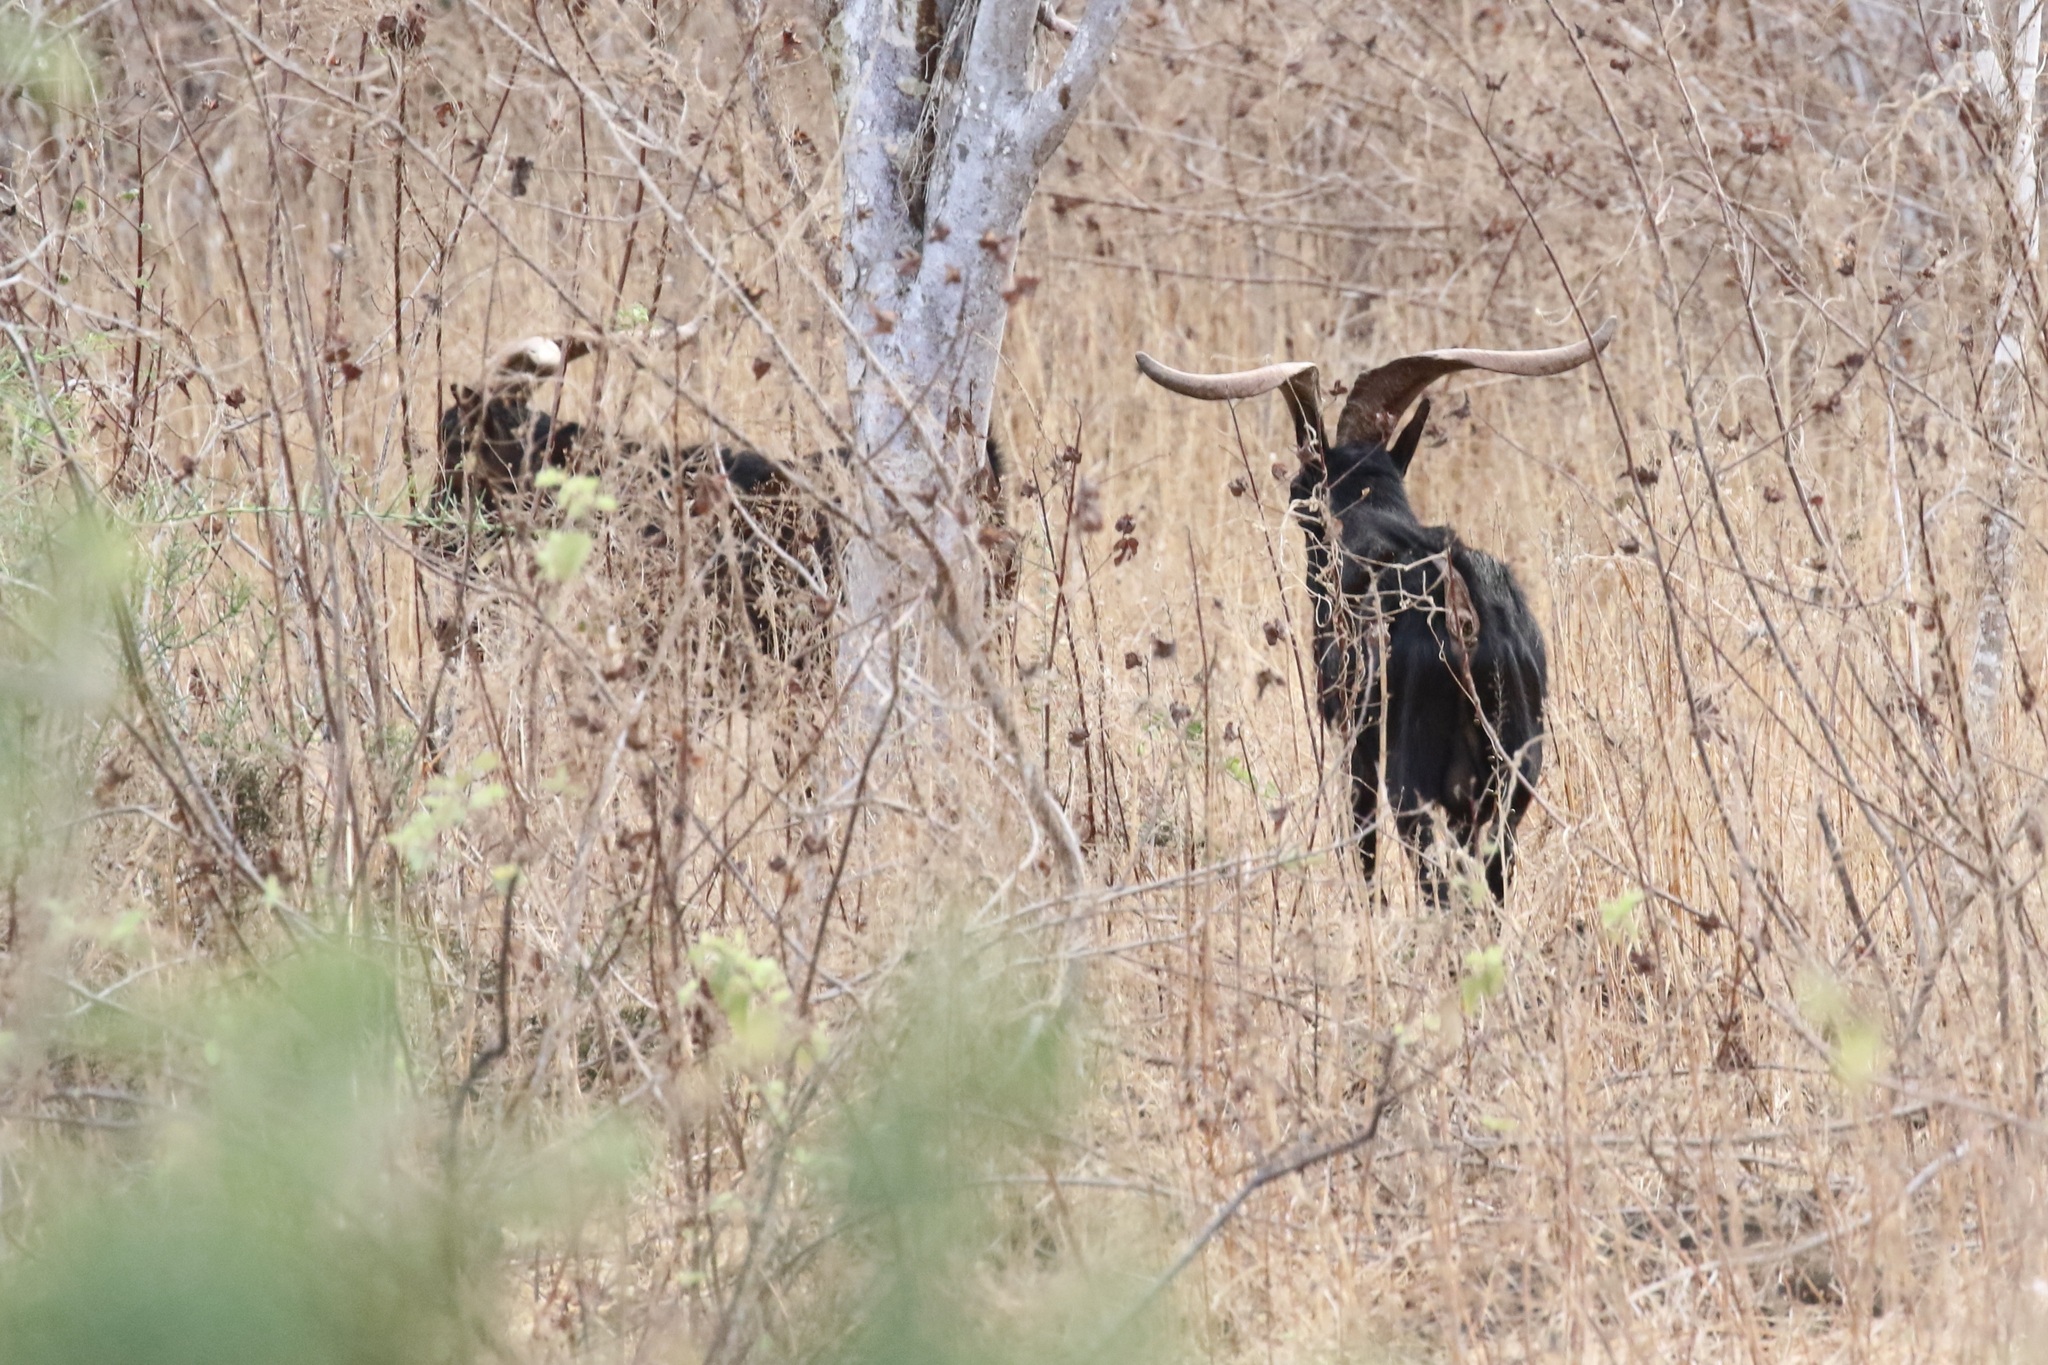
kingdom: Animalia
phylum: Chordata
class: Mammalia
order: Artiodactyla
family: Bovidae
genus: Capra
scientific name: Capra hircus
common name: Domestic goat
